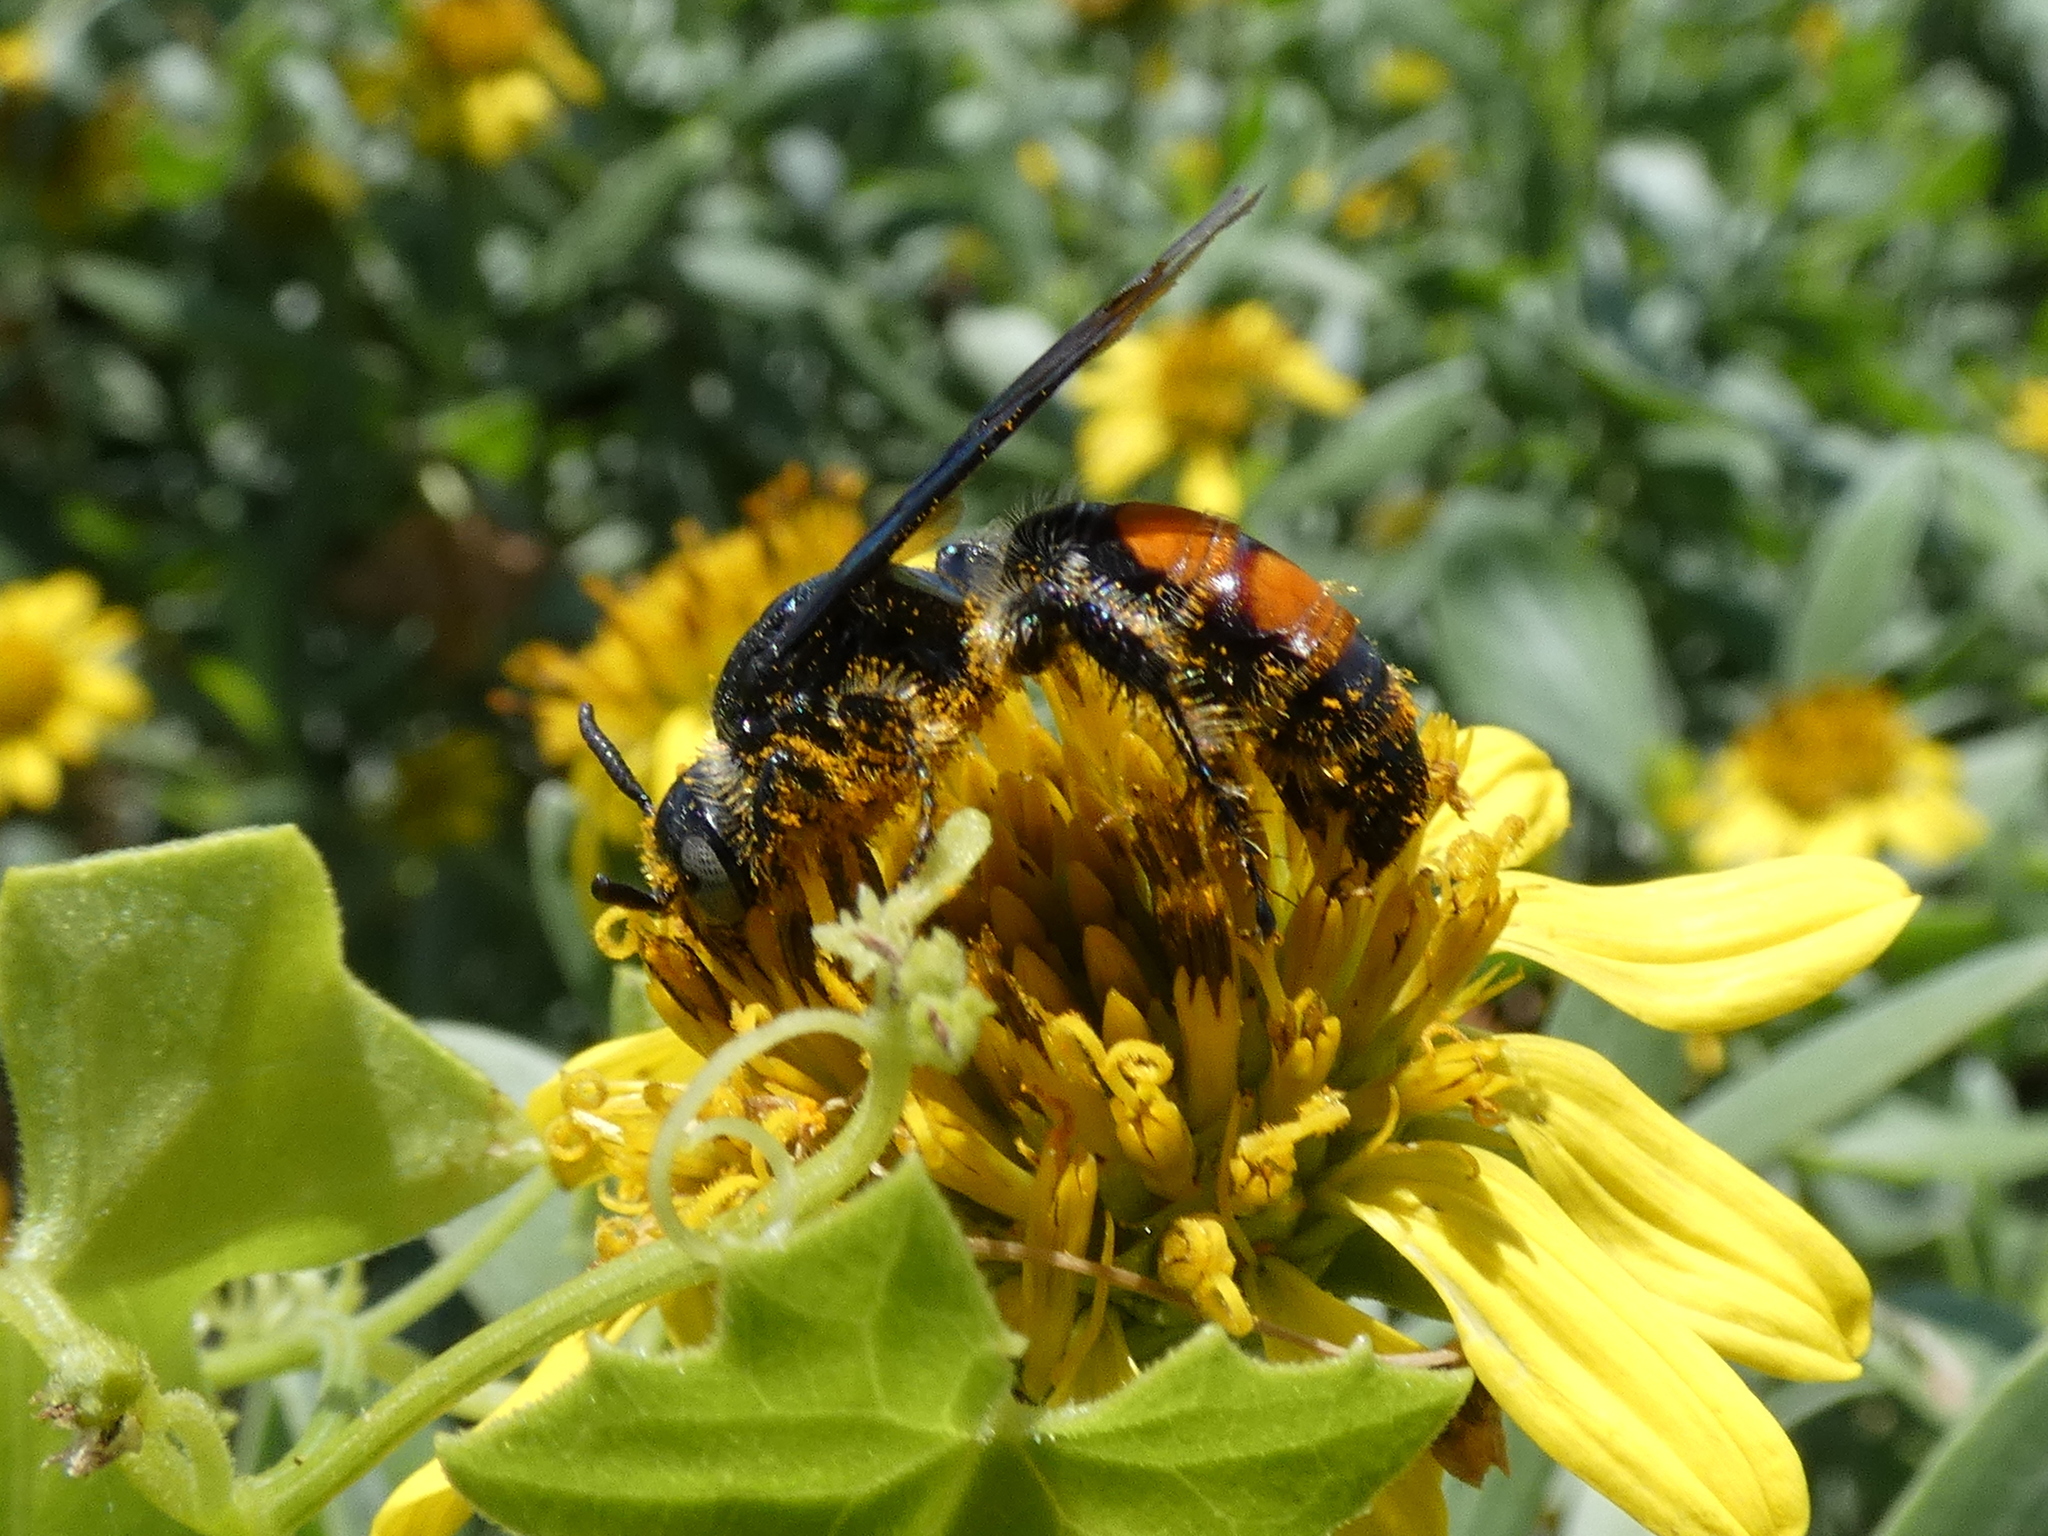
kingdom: Animalia
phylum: Arthropoda
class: Insecta
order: Hymenoptera
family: Scoliidae
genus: Dielis
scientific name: Dielis dorsata
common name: Scoliid wasp
